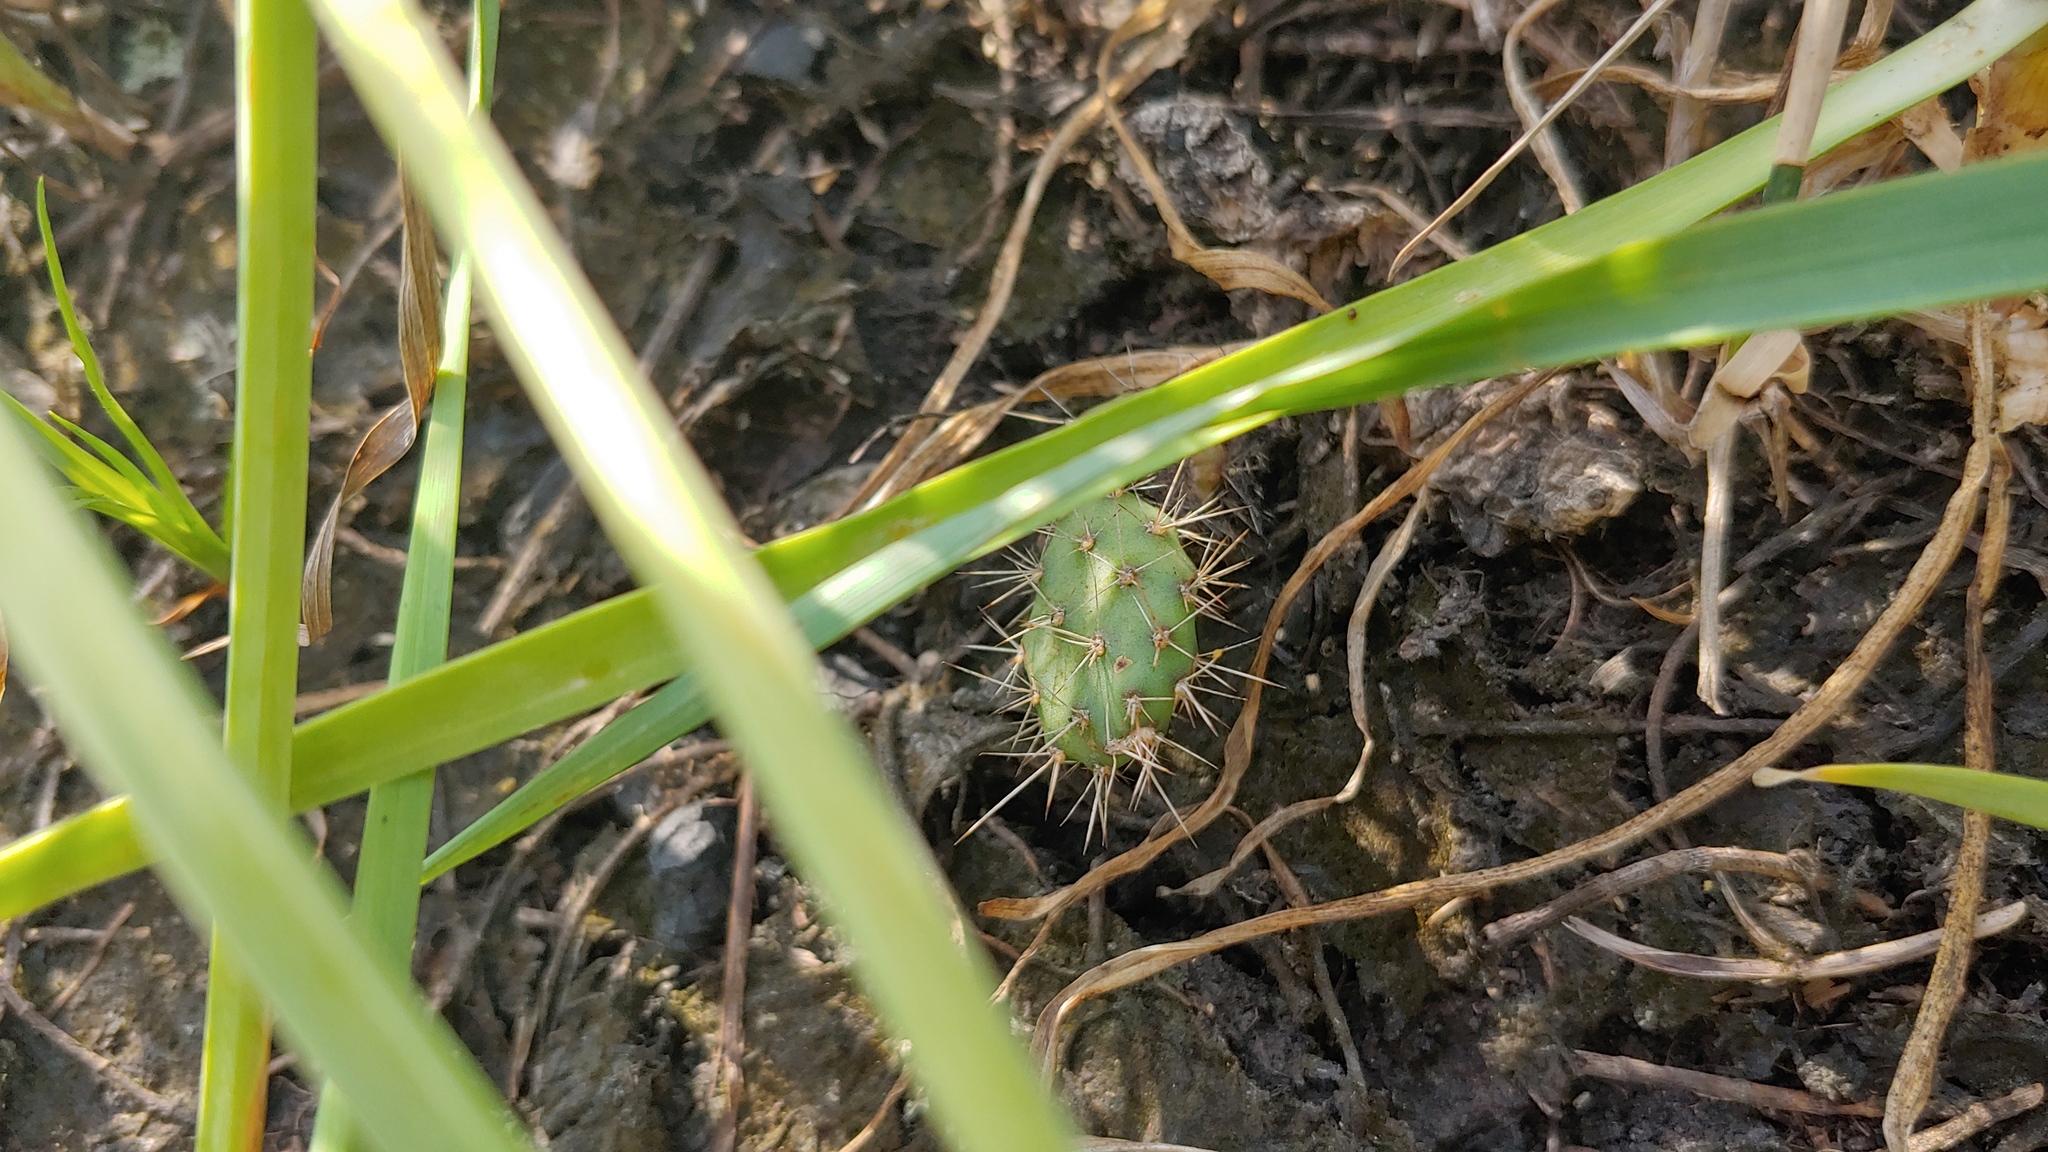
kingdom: Plantae
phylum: Tracheophyta
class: Magnoliopsida
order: Caryophyllales
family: Cactaceae
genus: Opuntia
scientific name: Opuntia humifusa
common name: Eastern prickly-pear
